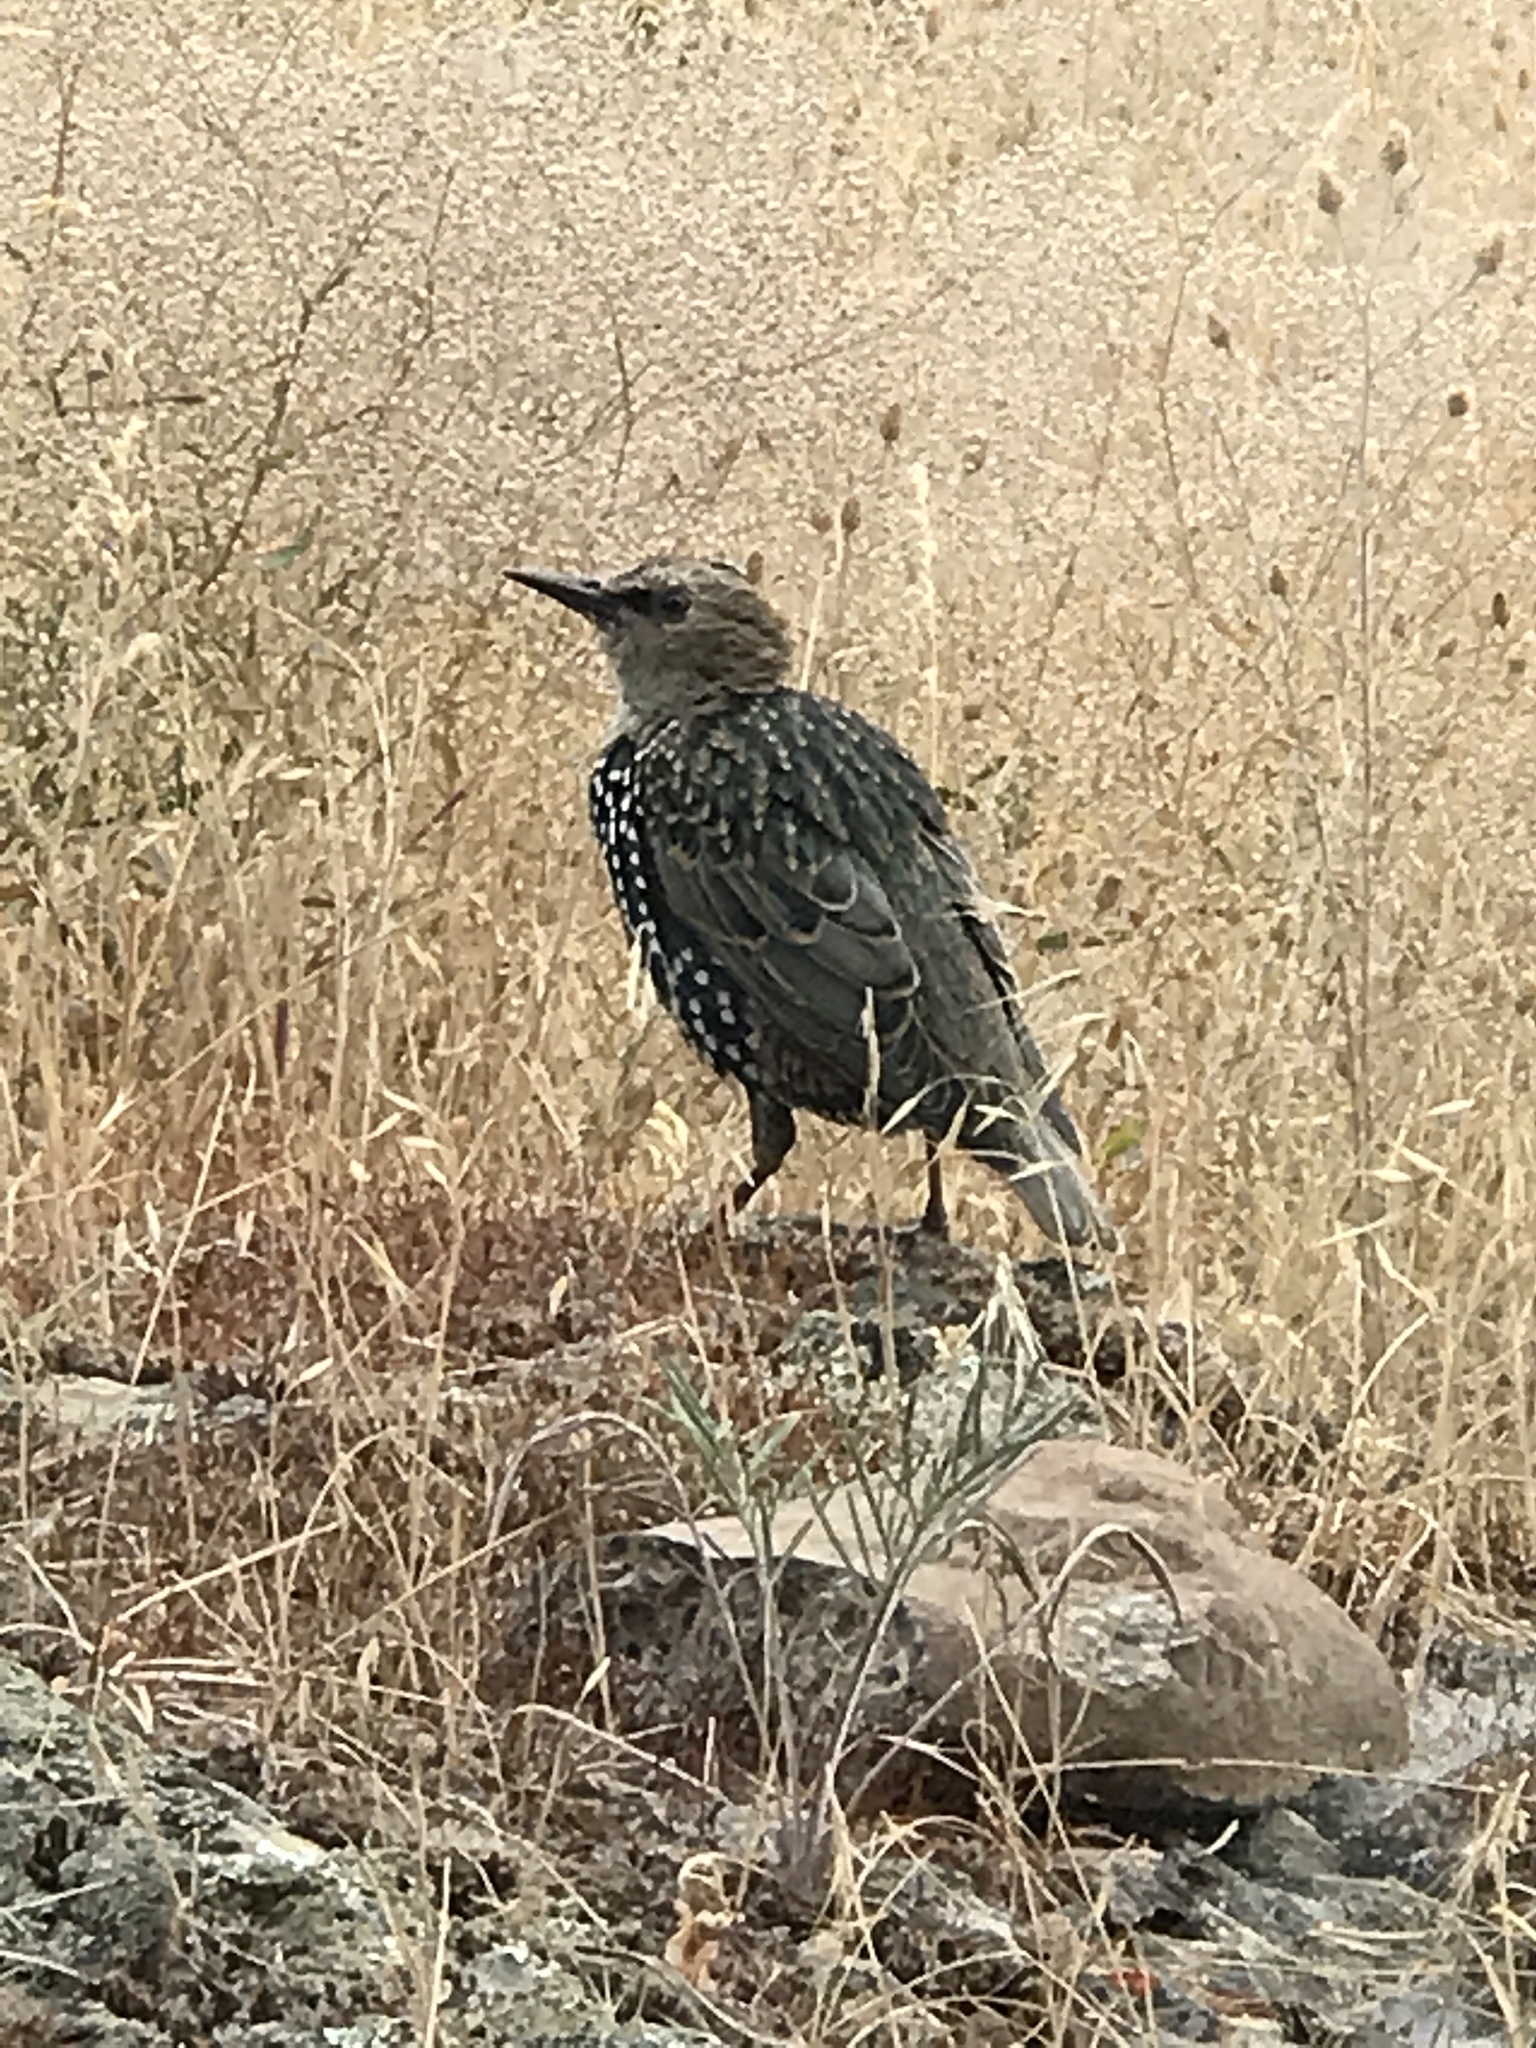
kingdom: Animalia
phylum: Chordata
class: Aves
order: Passeriformes
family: Sturnidae
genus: Sturnus
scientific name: Sturnus vulgaris
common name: Common starling
